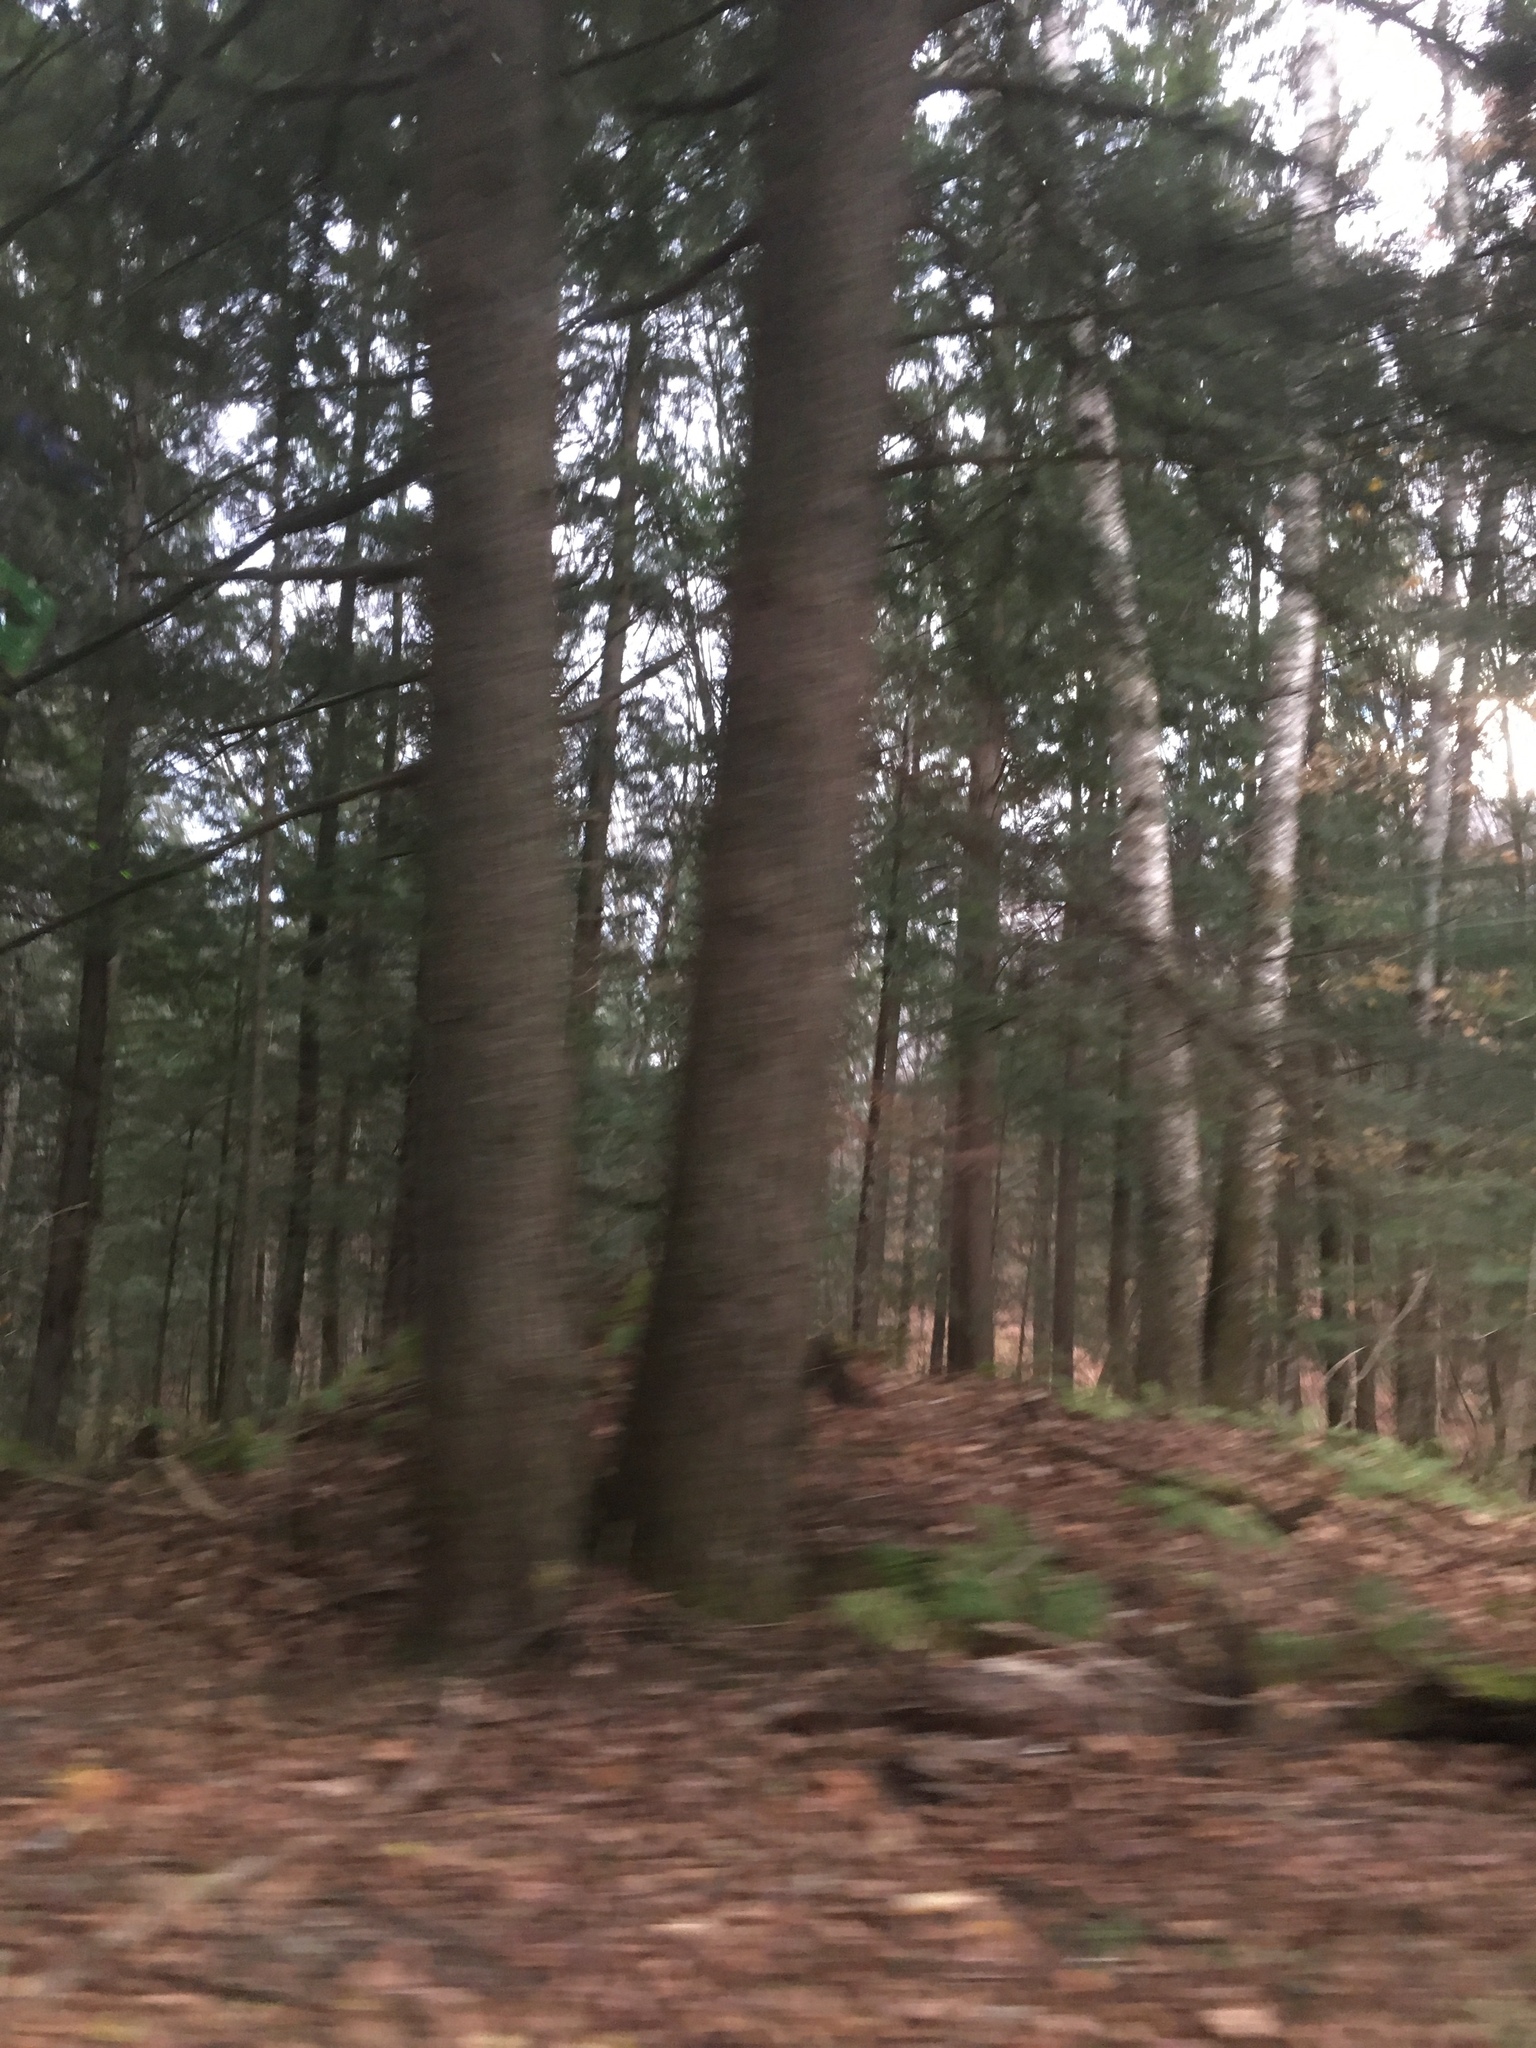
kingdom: Plantae
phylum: Tracheophyta
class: Pinopsida
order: Pinales
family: Pinaceae
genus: Tsuga
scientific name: Tsuga canadensis
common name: Eastern hemlock
